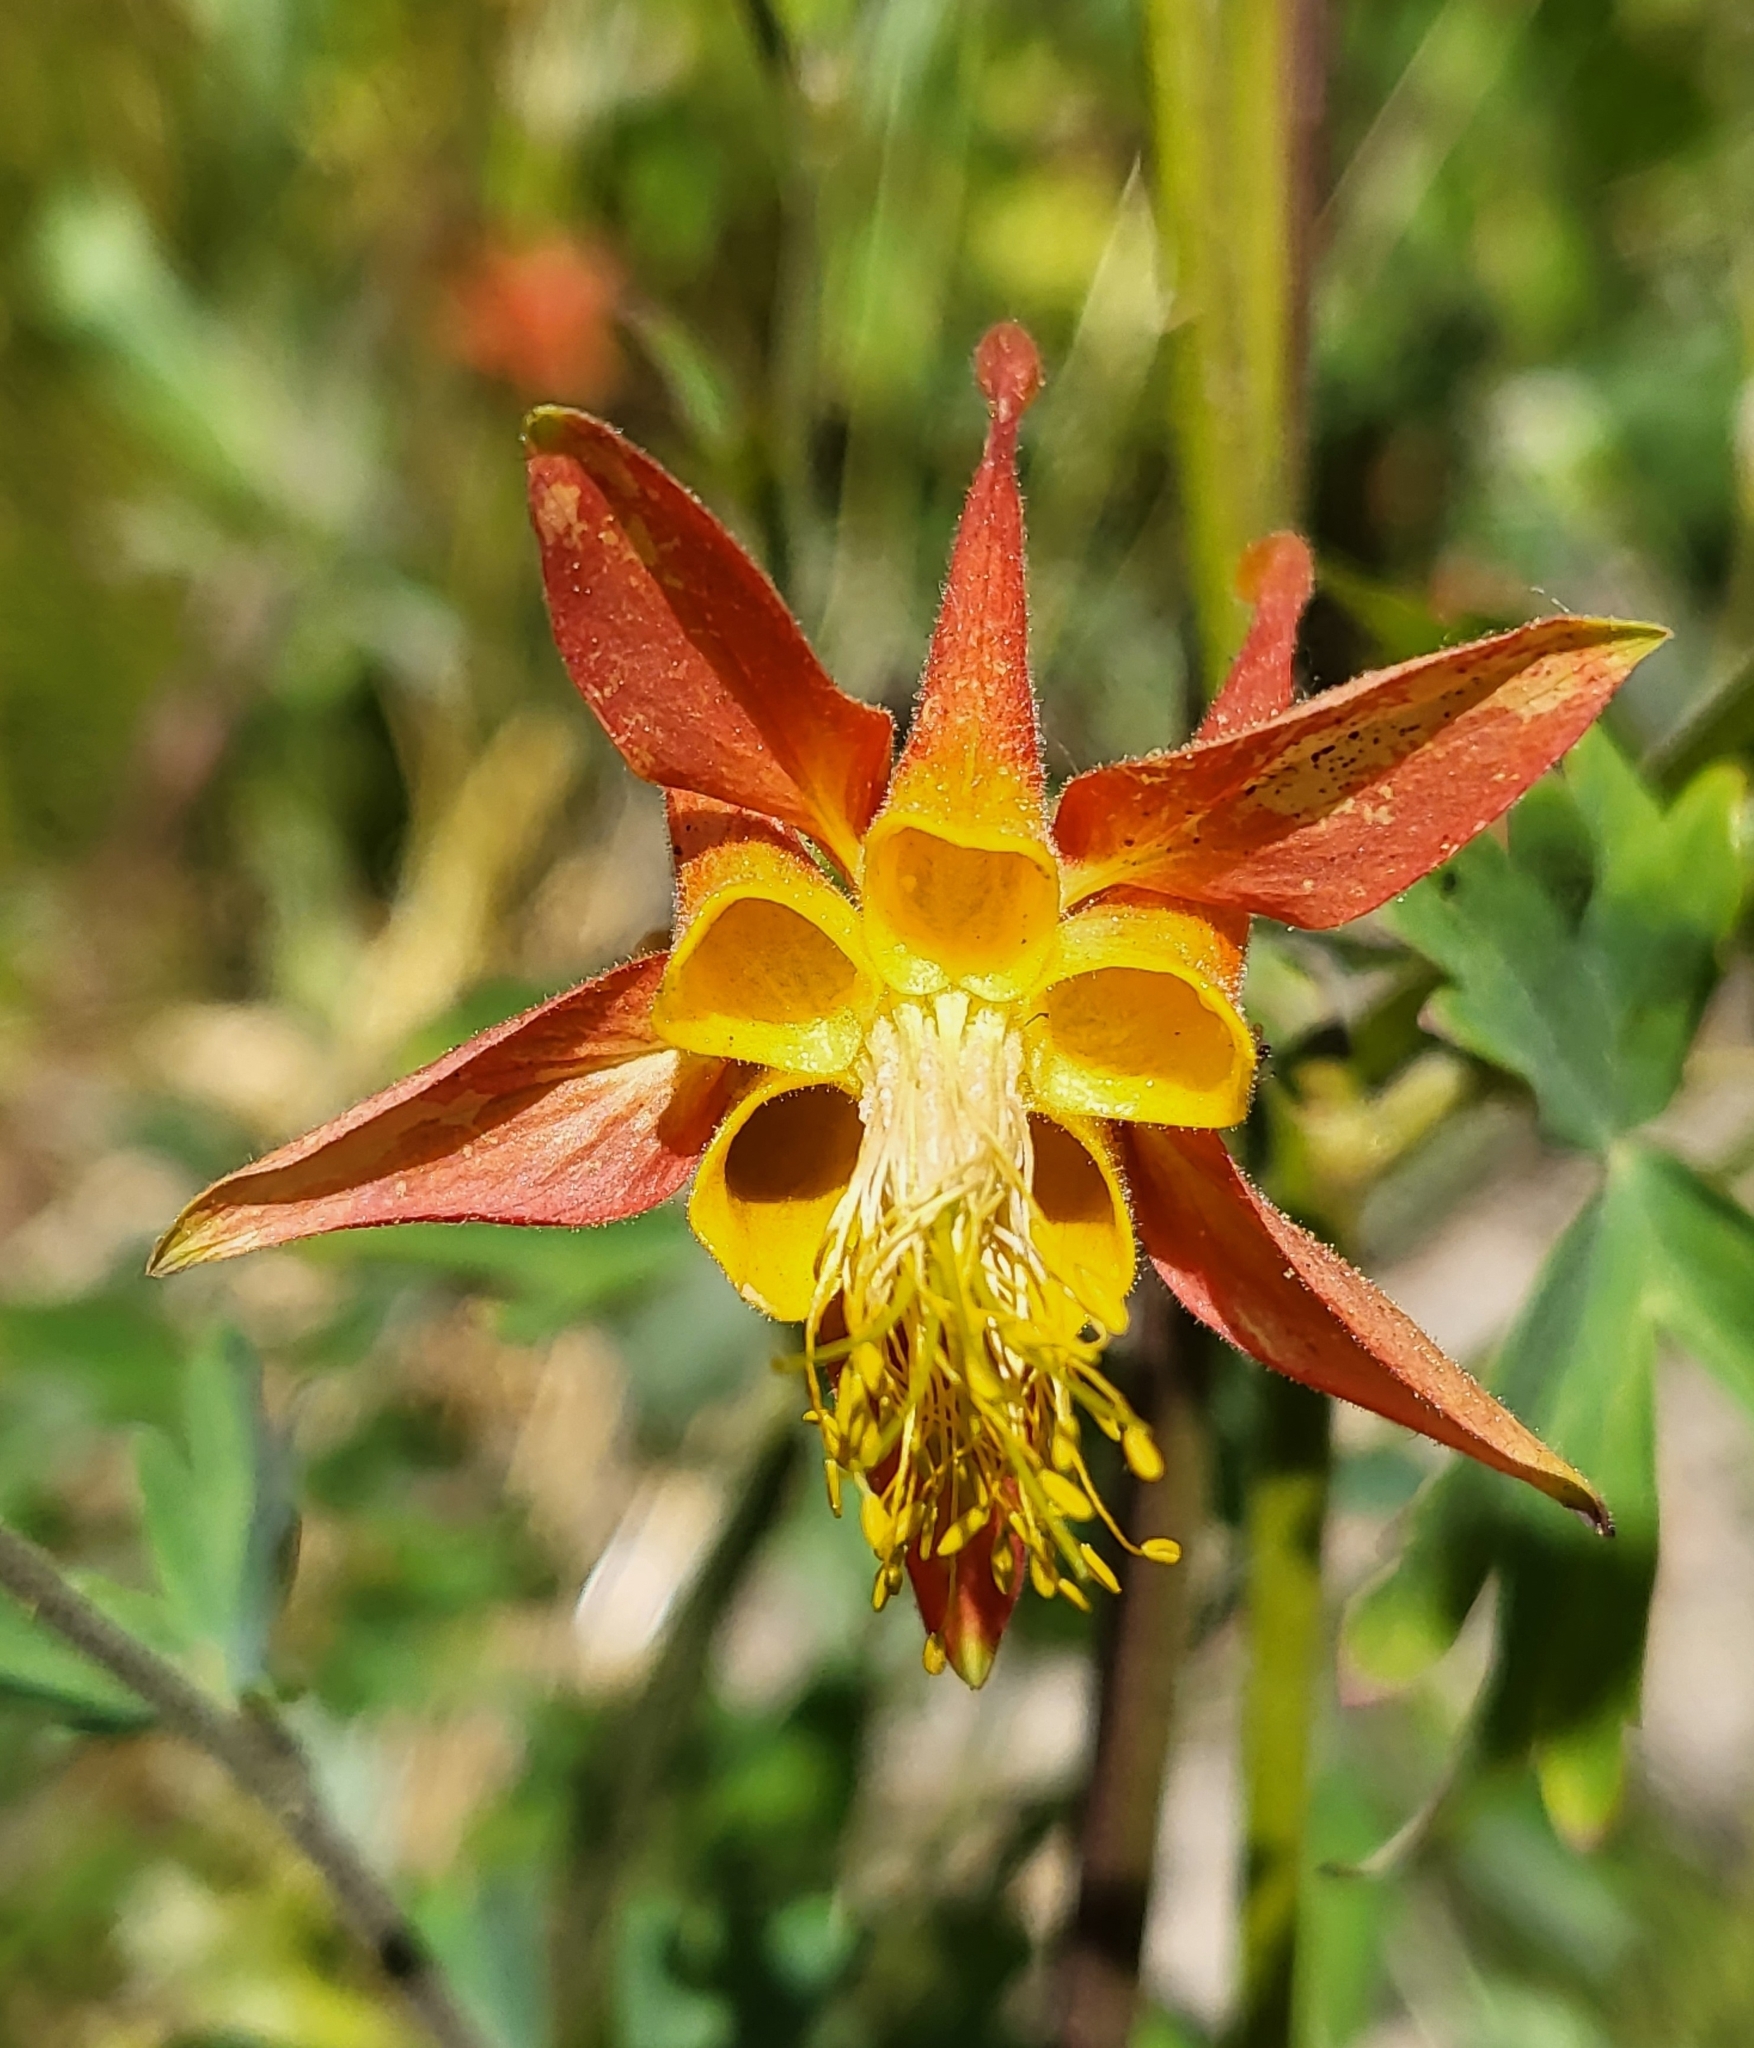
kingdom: Plantae
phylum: Tracheophyta
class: Magnoliopsida
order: Ranunculales
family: Ranunculaceae
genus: Aquilegia
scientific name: Aquilegia formosa
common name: Sitka columbine
